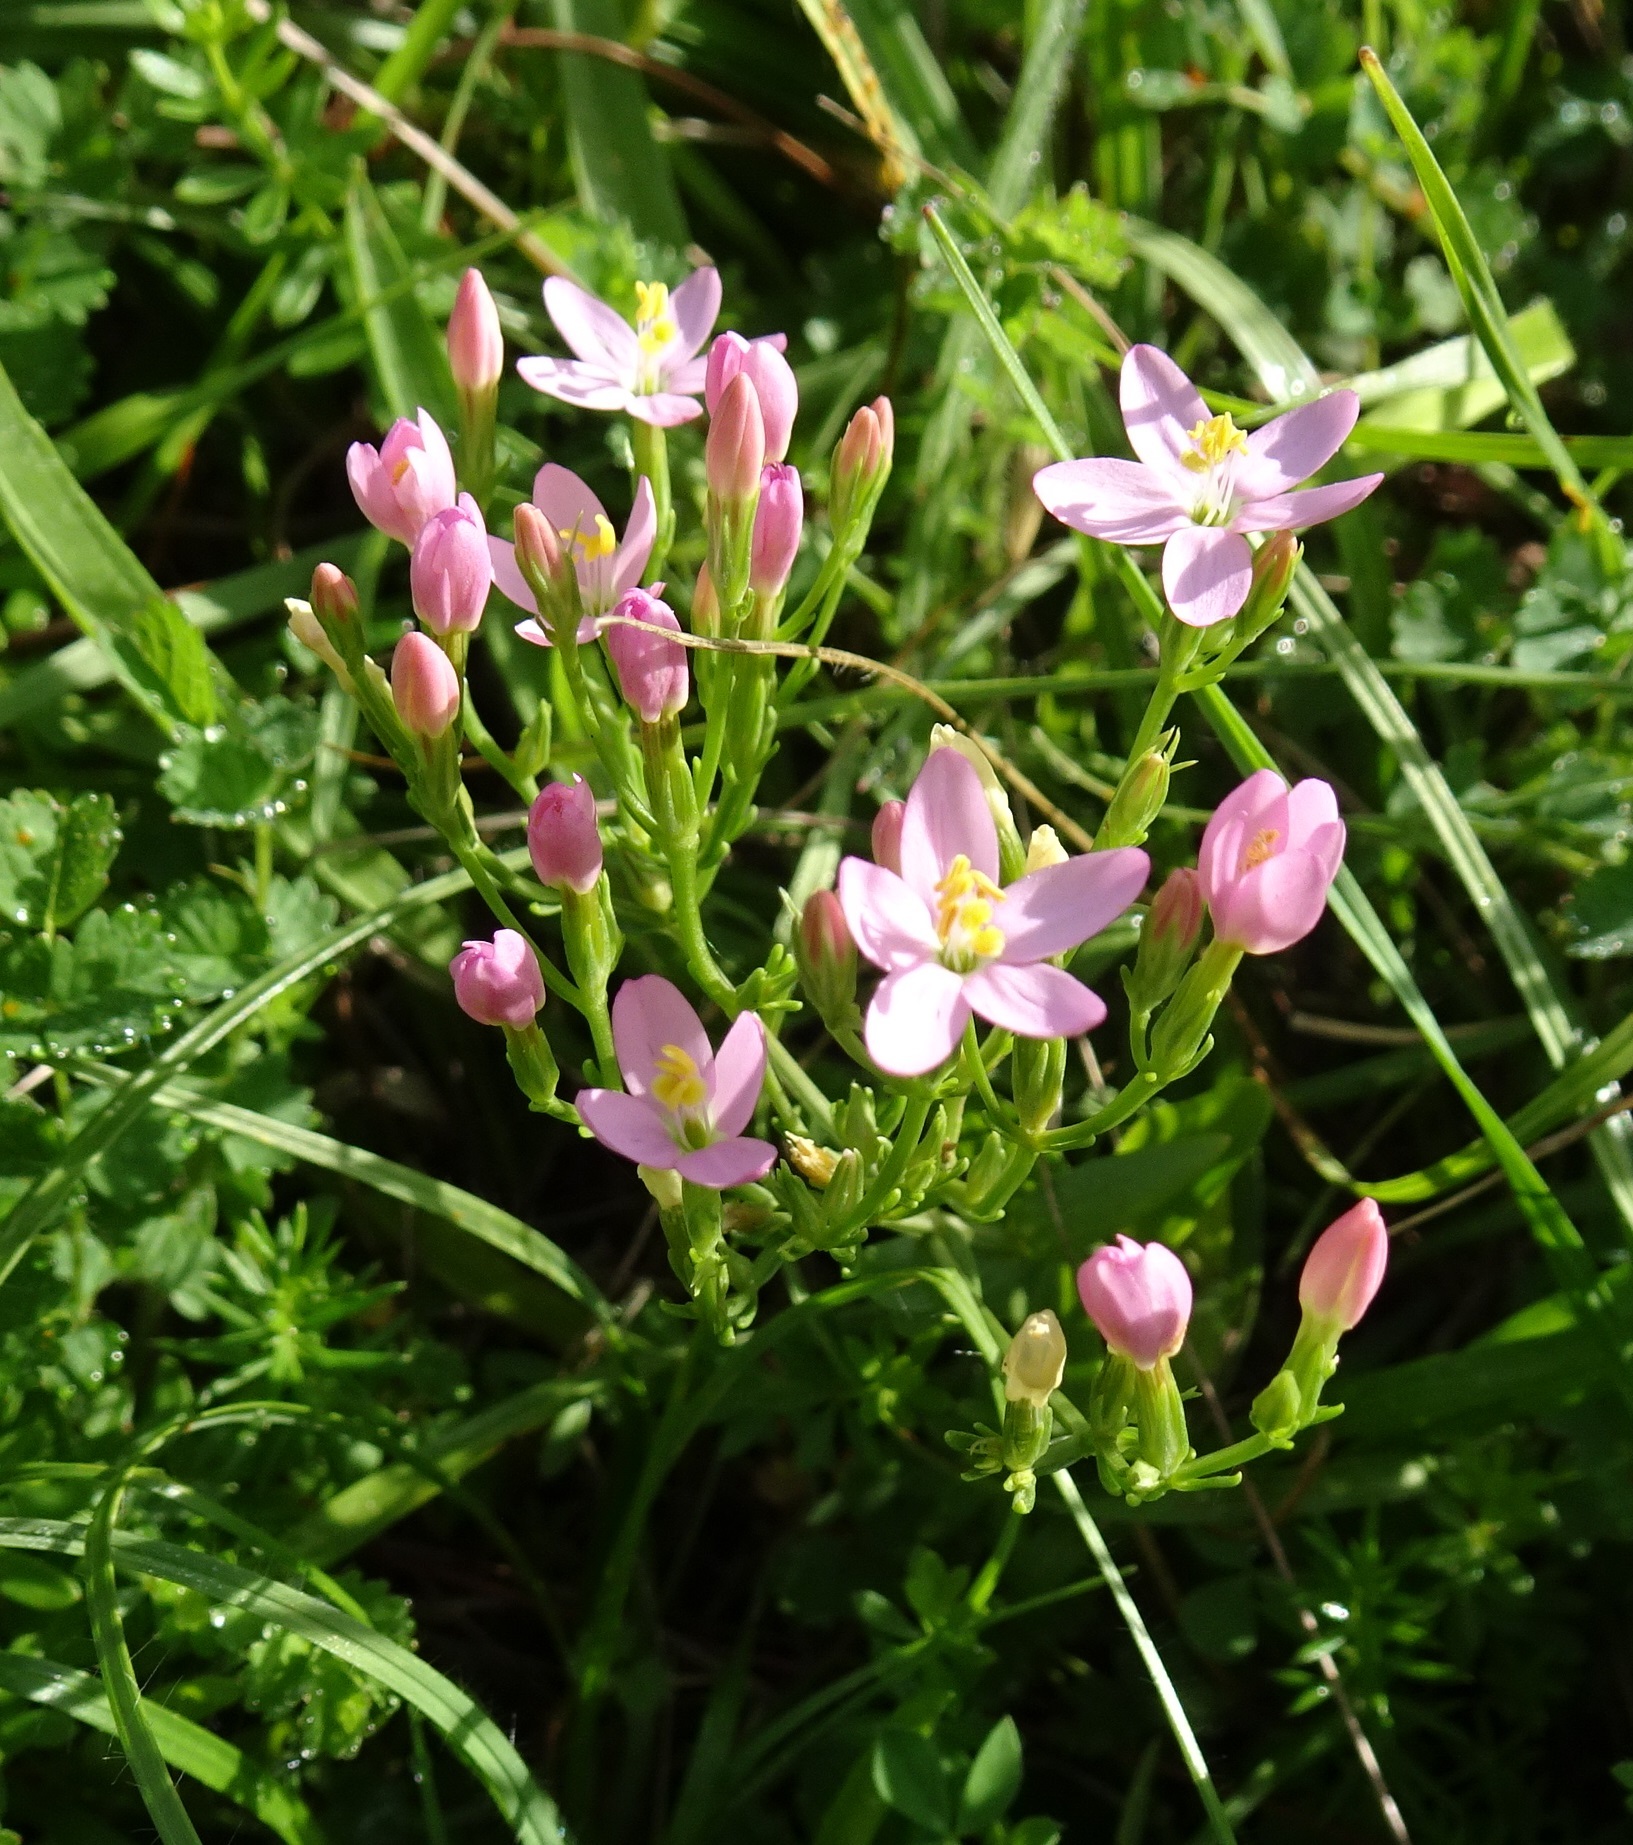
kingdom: Plantae
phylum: Tracheophyta
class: Magnoliopsida
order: Gentianales
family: Gentianaceae
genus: Centaurium
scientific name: Centaurium erythraea
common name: Common centaury
